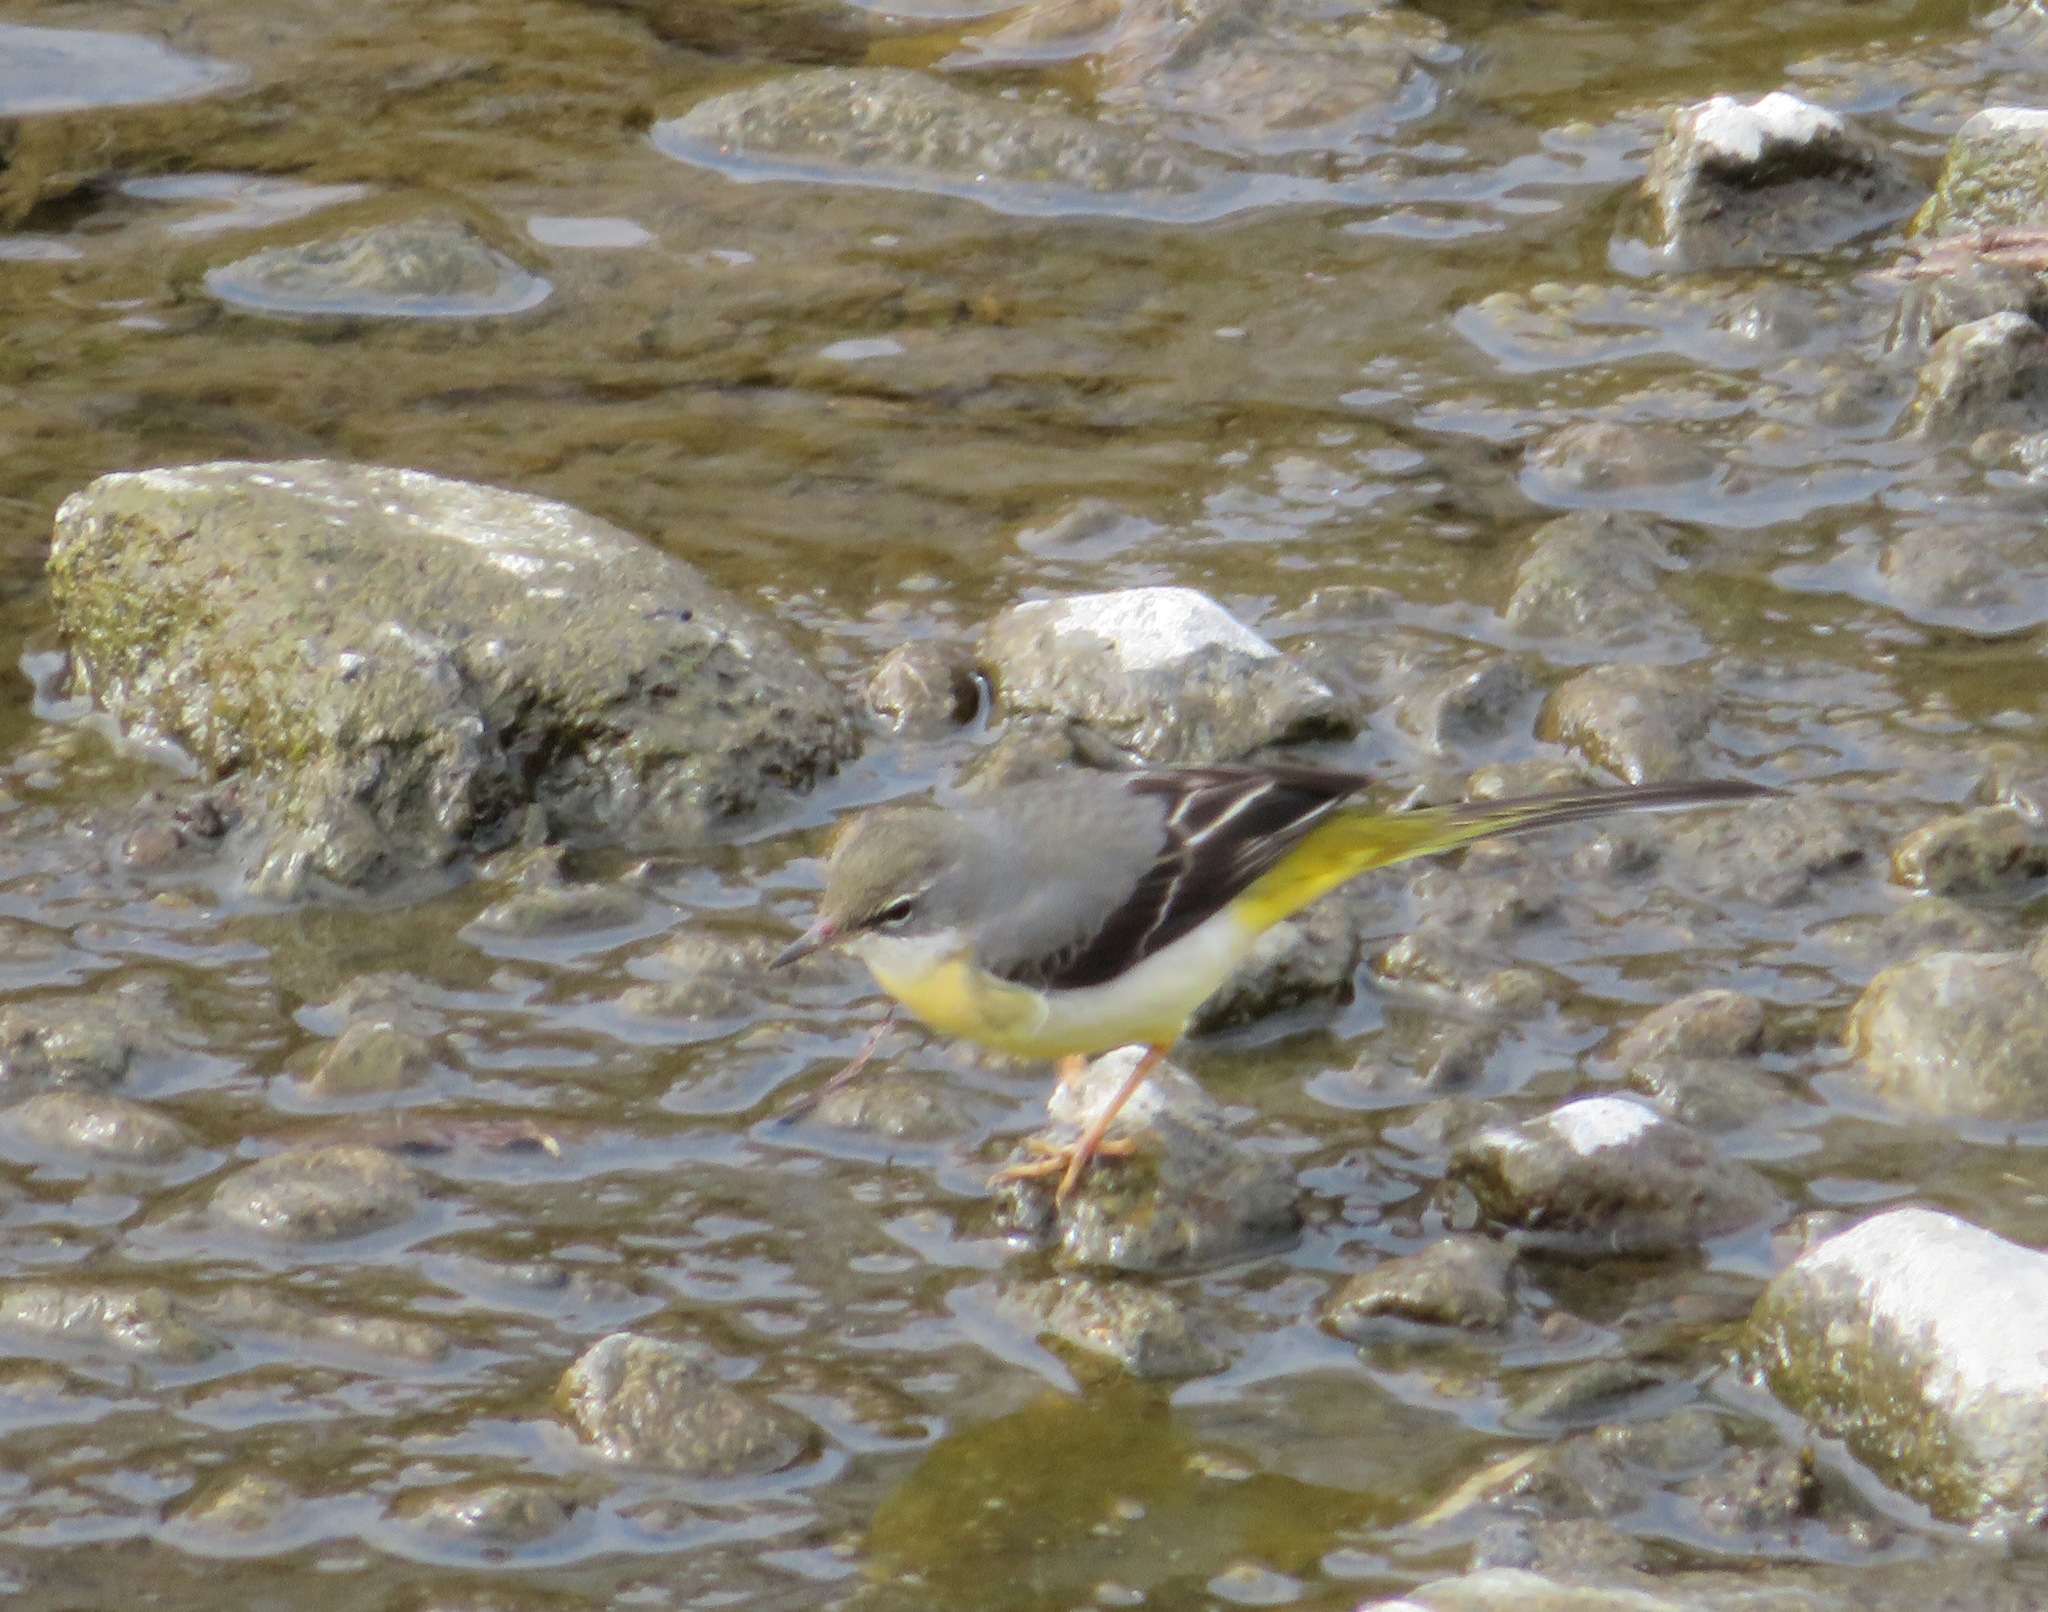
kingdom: Animalia
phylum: Chordata
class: Aves
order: Passeriformes
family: Motacillidae
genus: Motacilla
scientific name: Motacilla cinerea
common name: Grey wagtail
